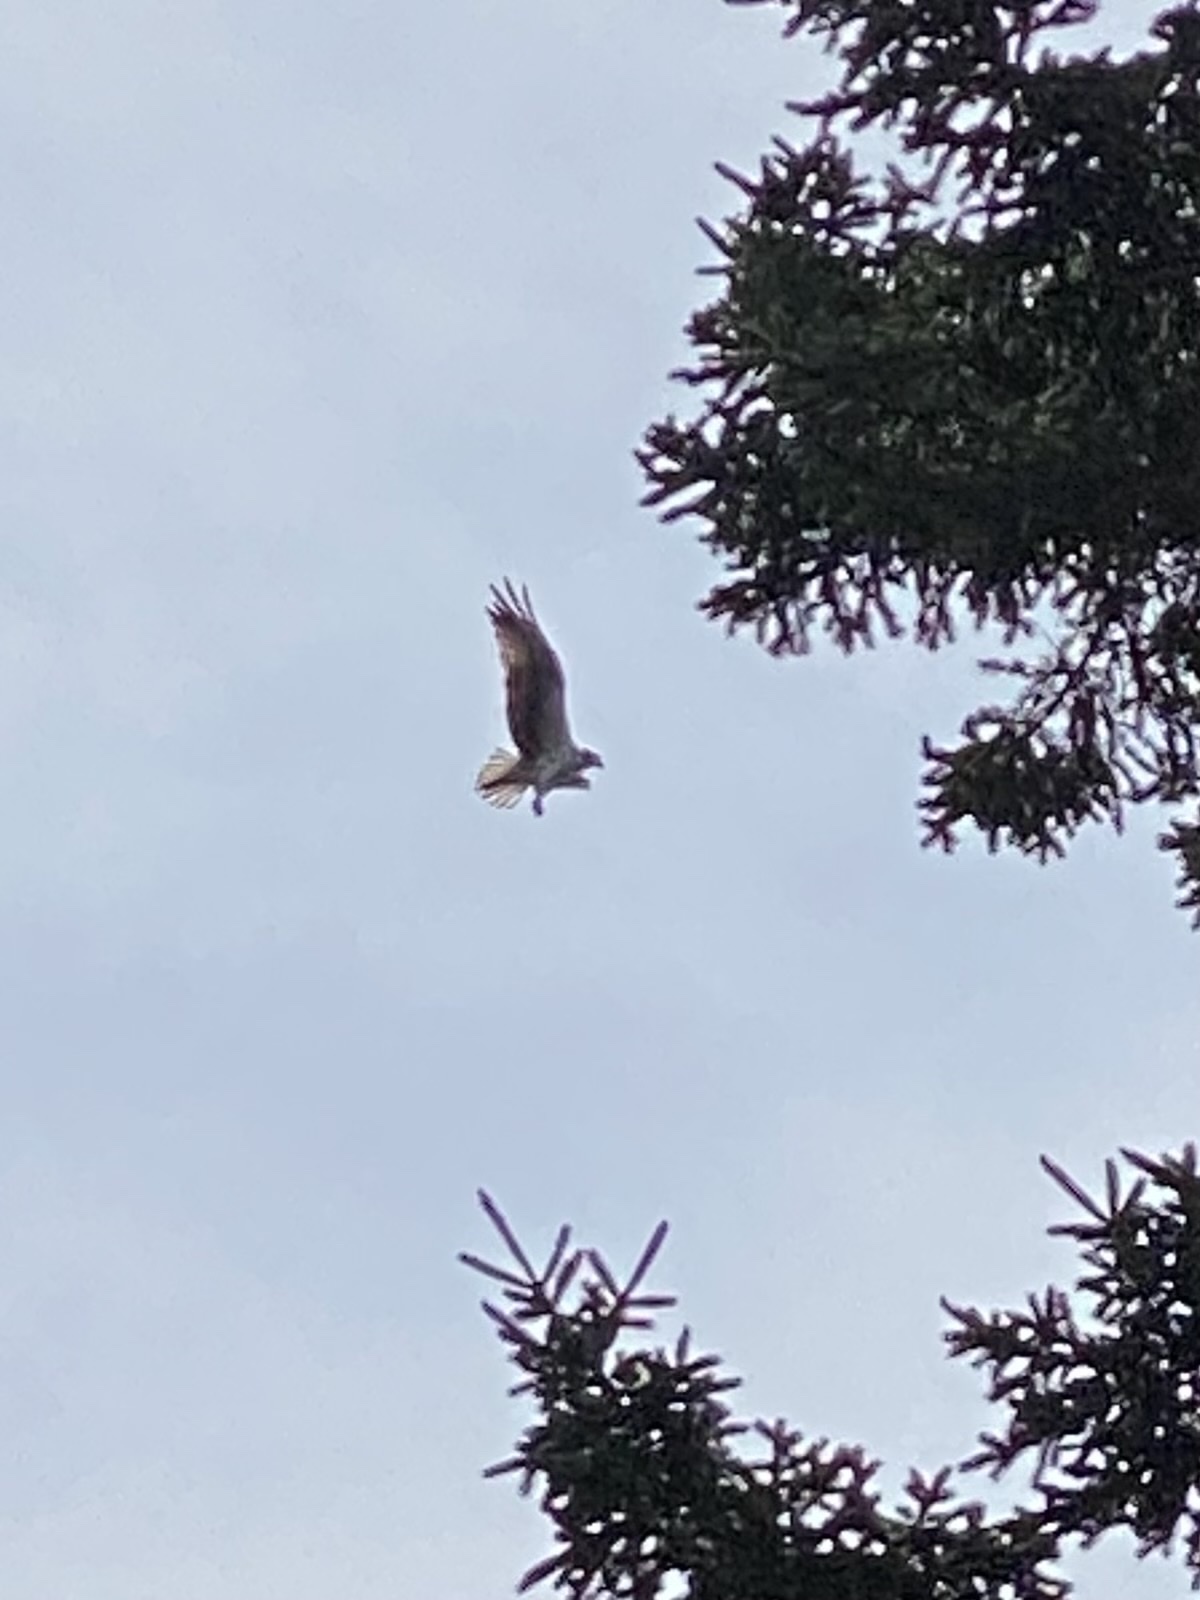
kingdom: Animalia
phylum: Chordata
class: Aves
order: Accipitriformes
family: Pandionidae
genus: Pandion
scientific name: Pandion haliaetus
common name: Osprey
